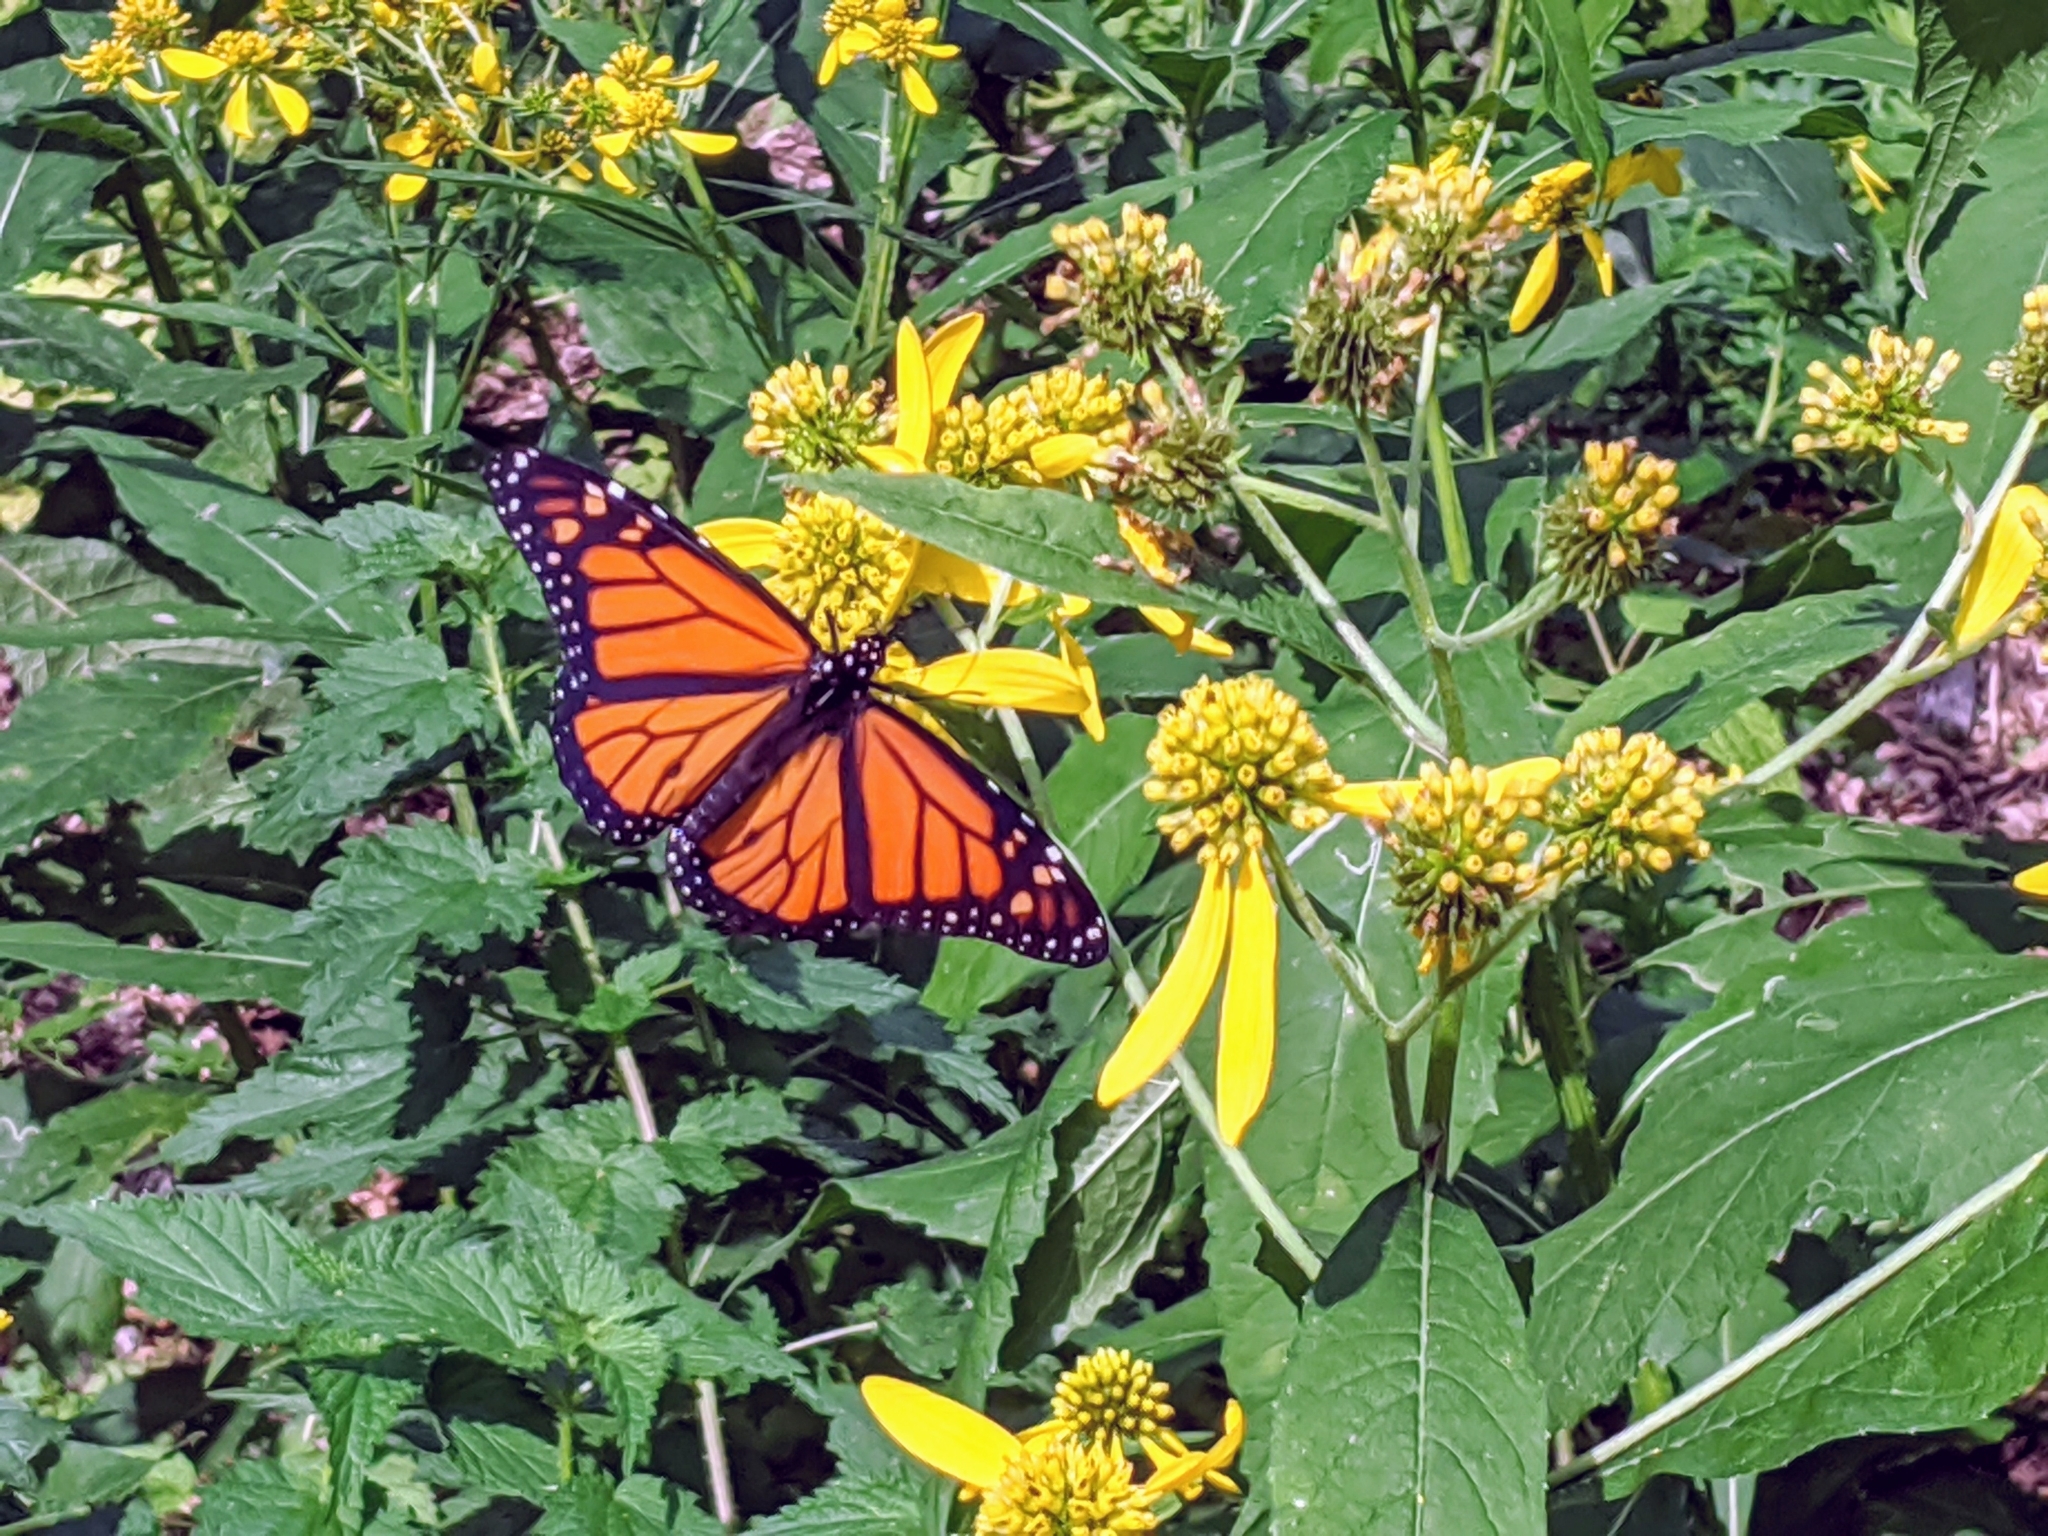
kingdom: Animalia
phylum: Arthropoda
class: Insecta
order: Lepidoptera
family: Nymphalidae
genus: Danaus
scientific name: Danaus plexippus
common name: Monarch
